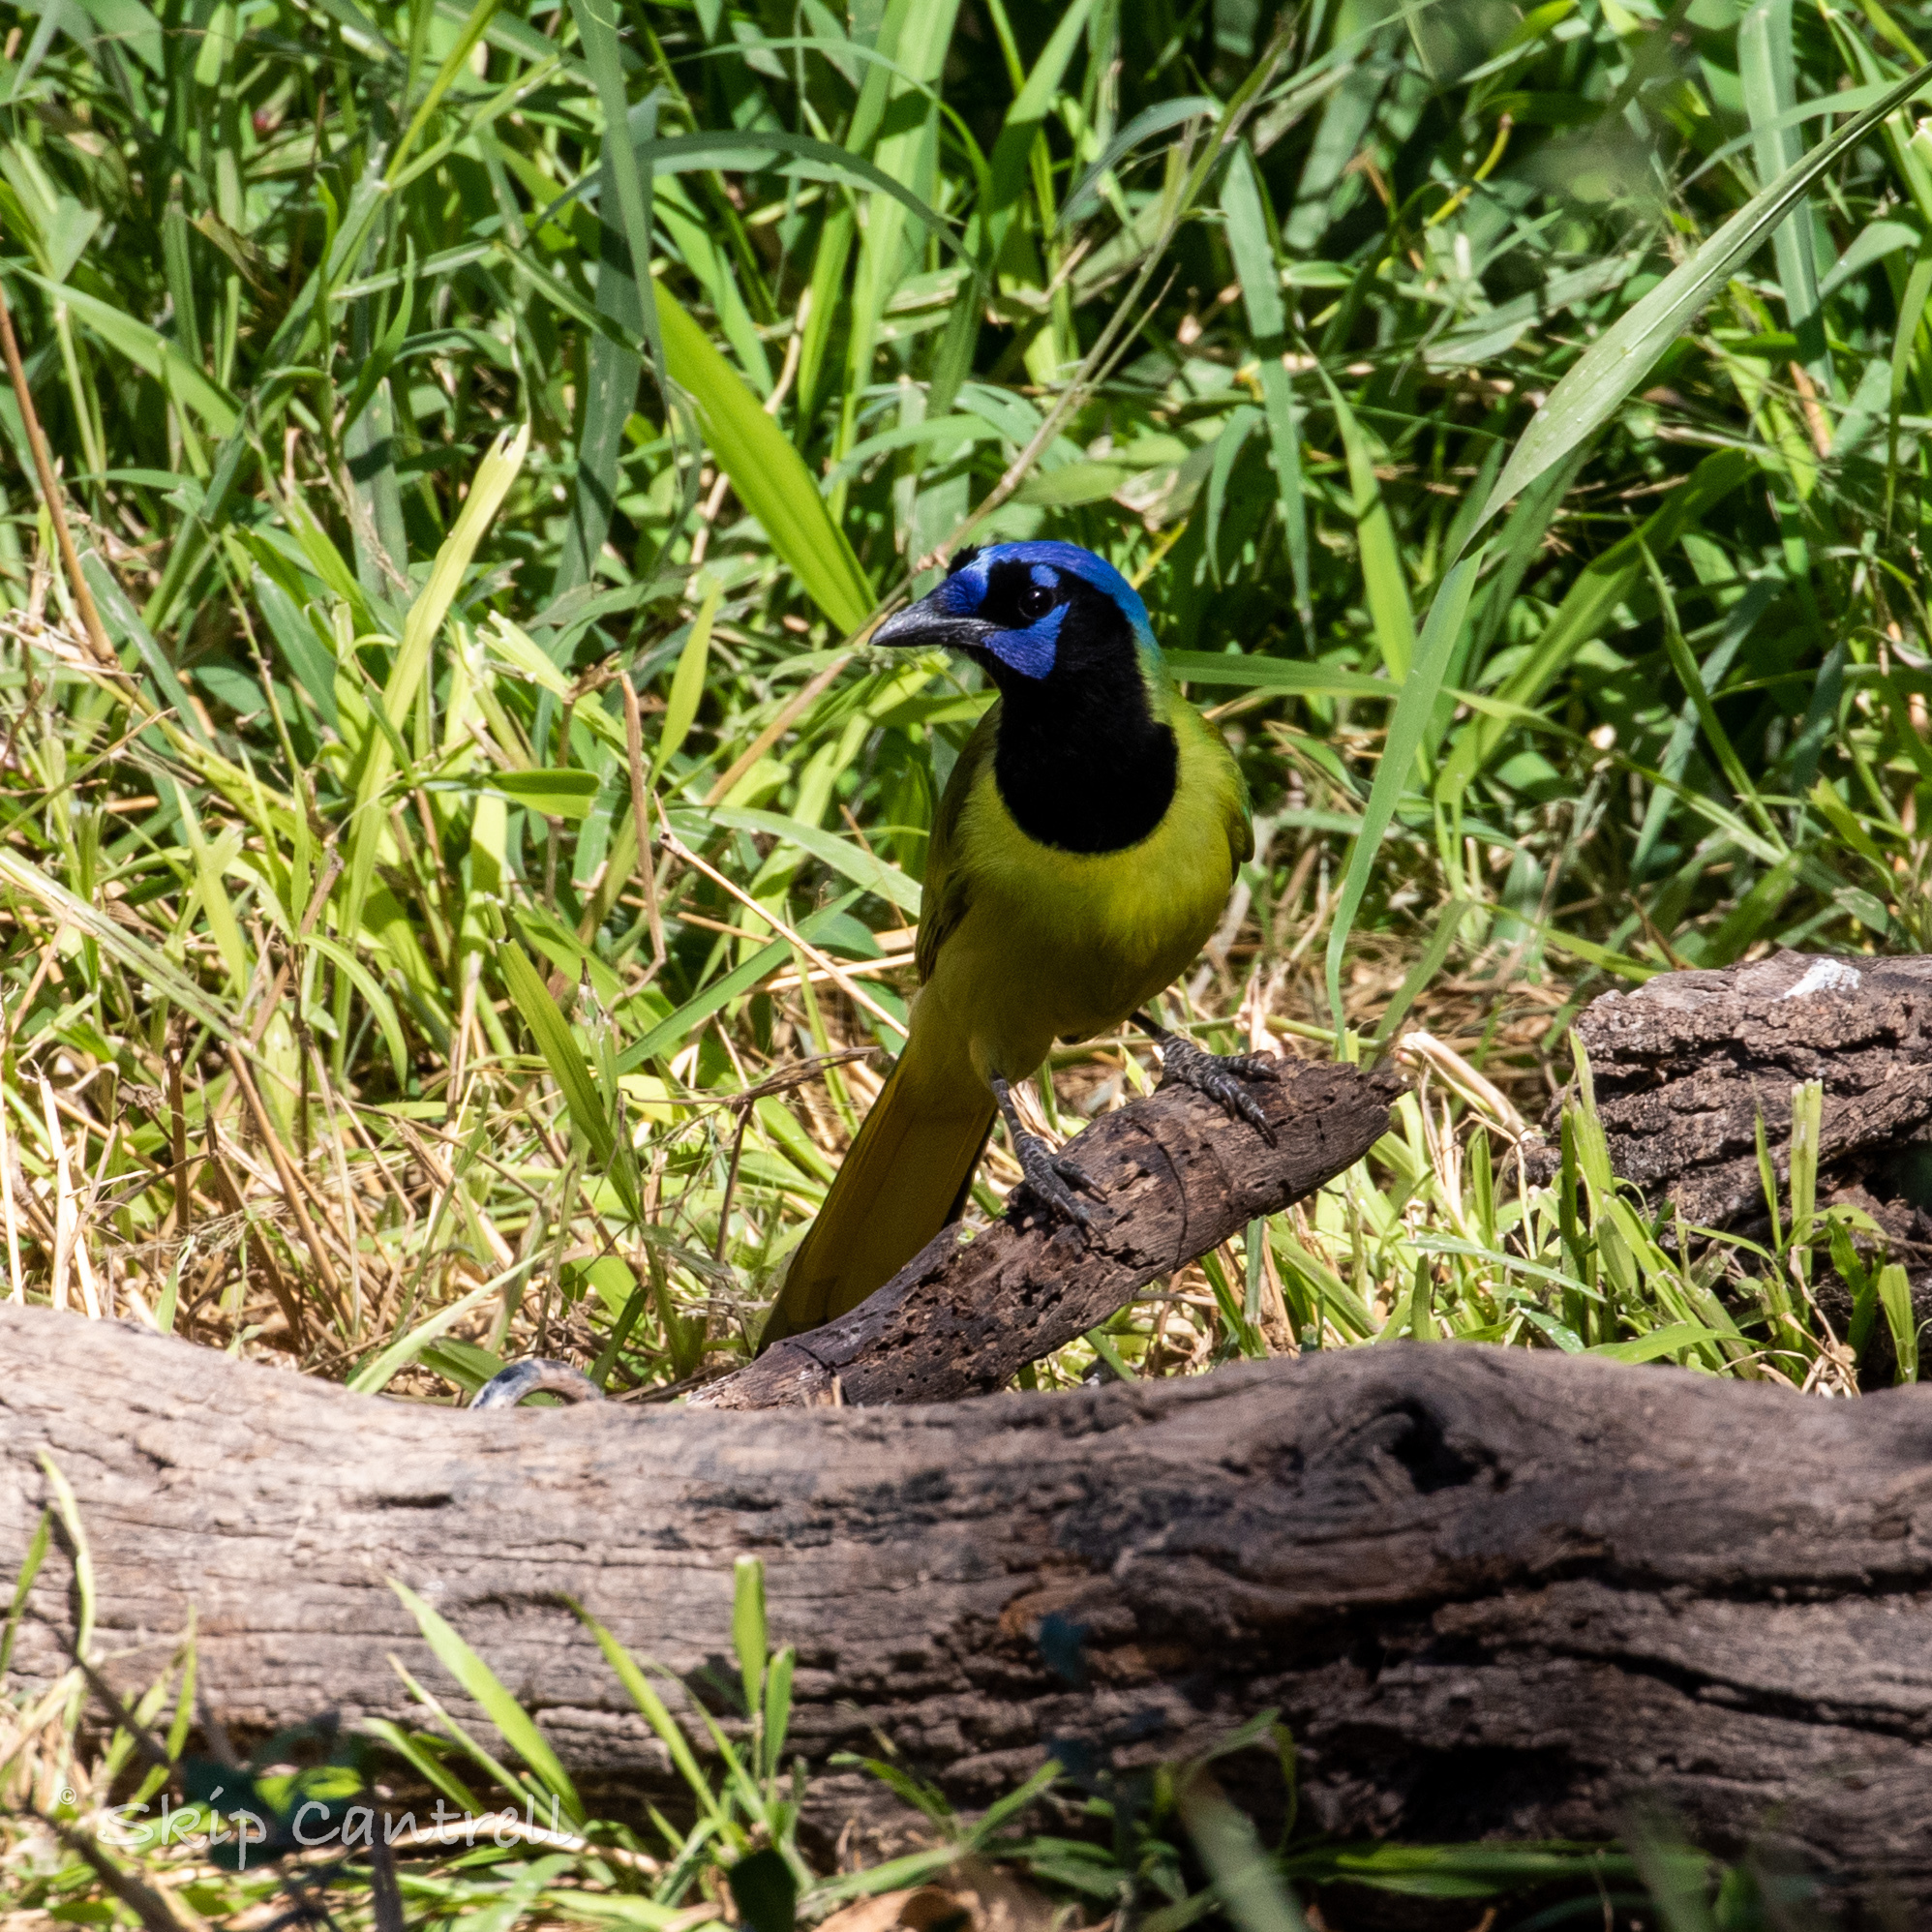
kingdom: Animalia
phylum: Chordata
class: Aves
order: Passeriformes
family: Corvidae
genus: Cyanocorax
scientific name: Cyanocorax yncas
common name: Green jay
